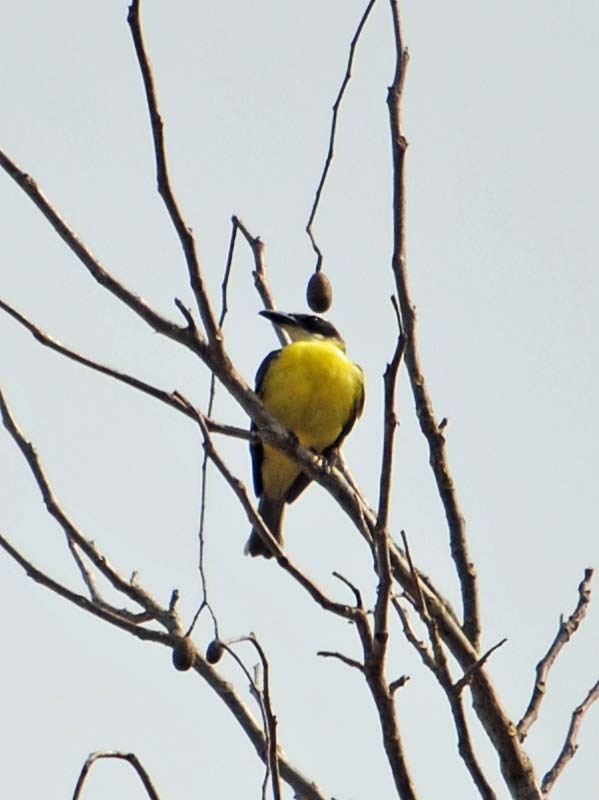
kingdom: Animalia
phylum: Chordata
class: Aves
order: Passeriformes
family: Tyrannidae
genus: Pitangus
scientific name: Pitangus sulphuratus
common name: Great kiskadee
